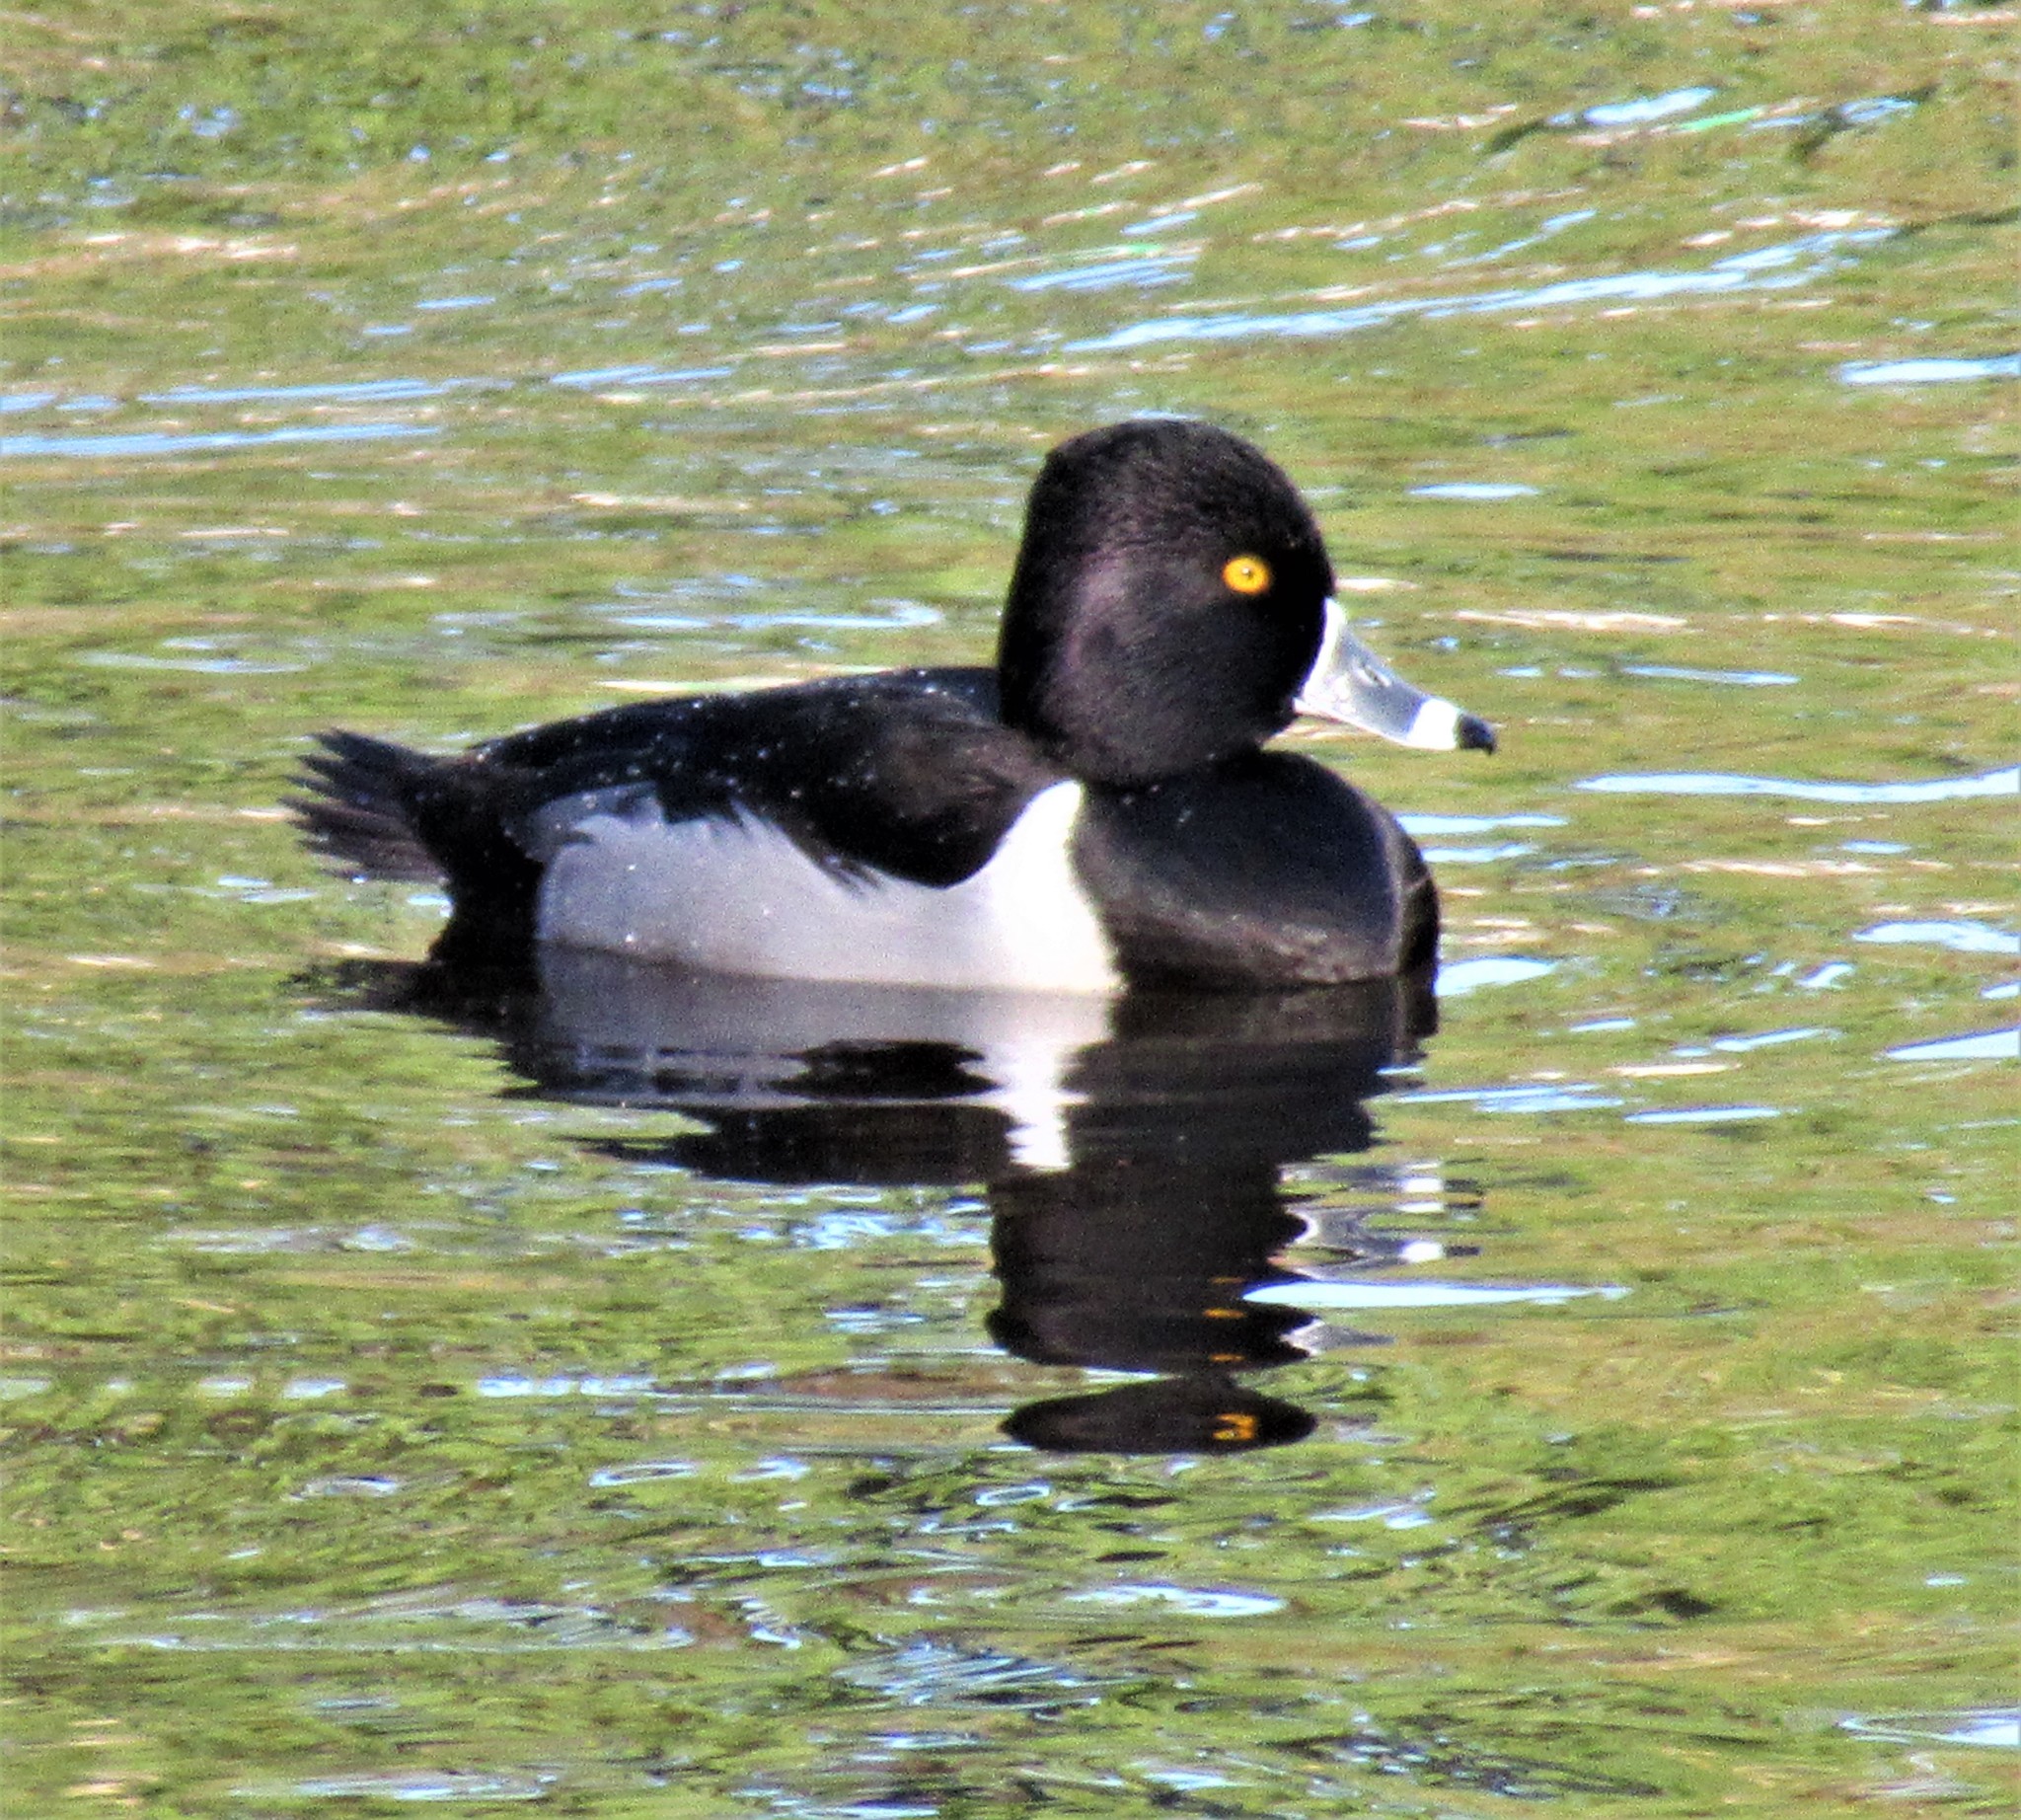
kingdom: Animalia
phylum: Chordata
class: Aves
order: Anseriformes
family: Anatidae
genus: Aythya
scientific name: Aythya collaris
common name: Ring-necked duck
